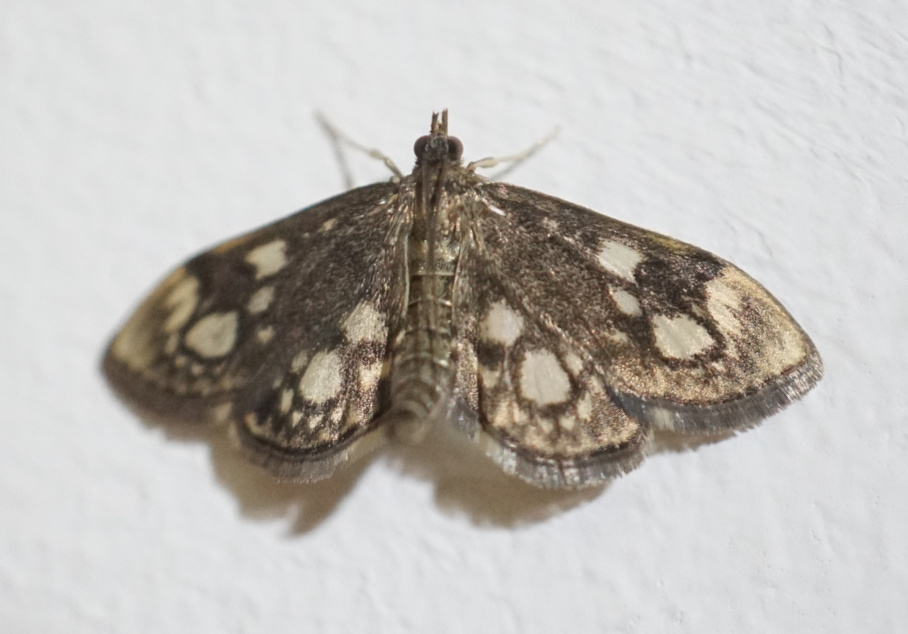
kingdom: Animalia
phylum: Arthropoda
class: Insecta
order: Lepidoptera
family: Crambidae
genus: Anania
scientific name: Anania coronata
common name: Elder pearl
